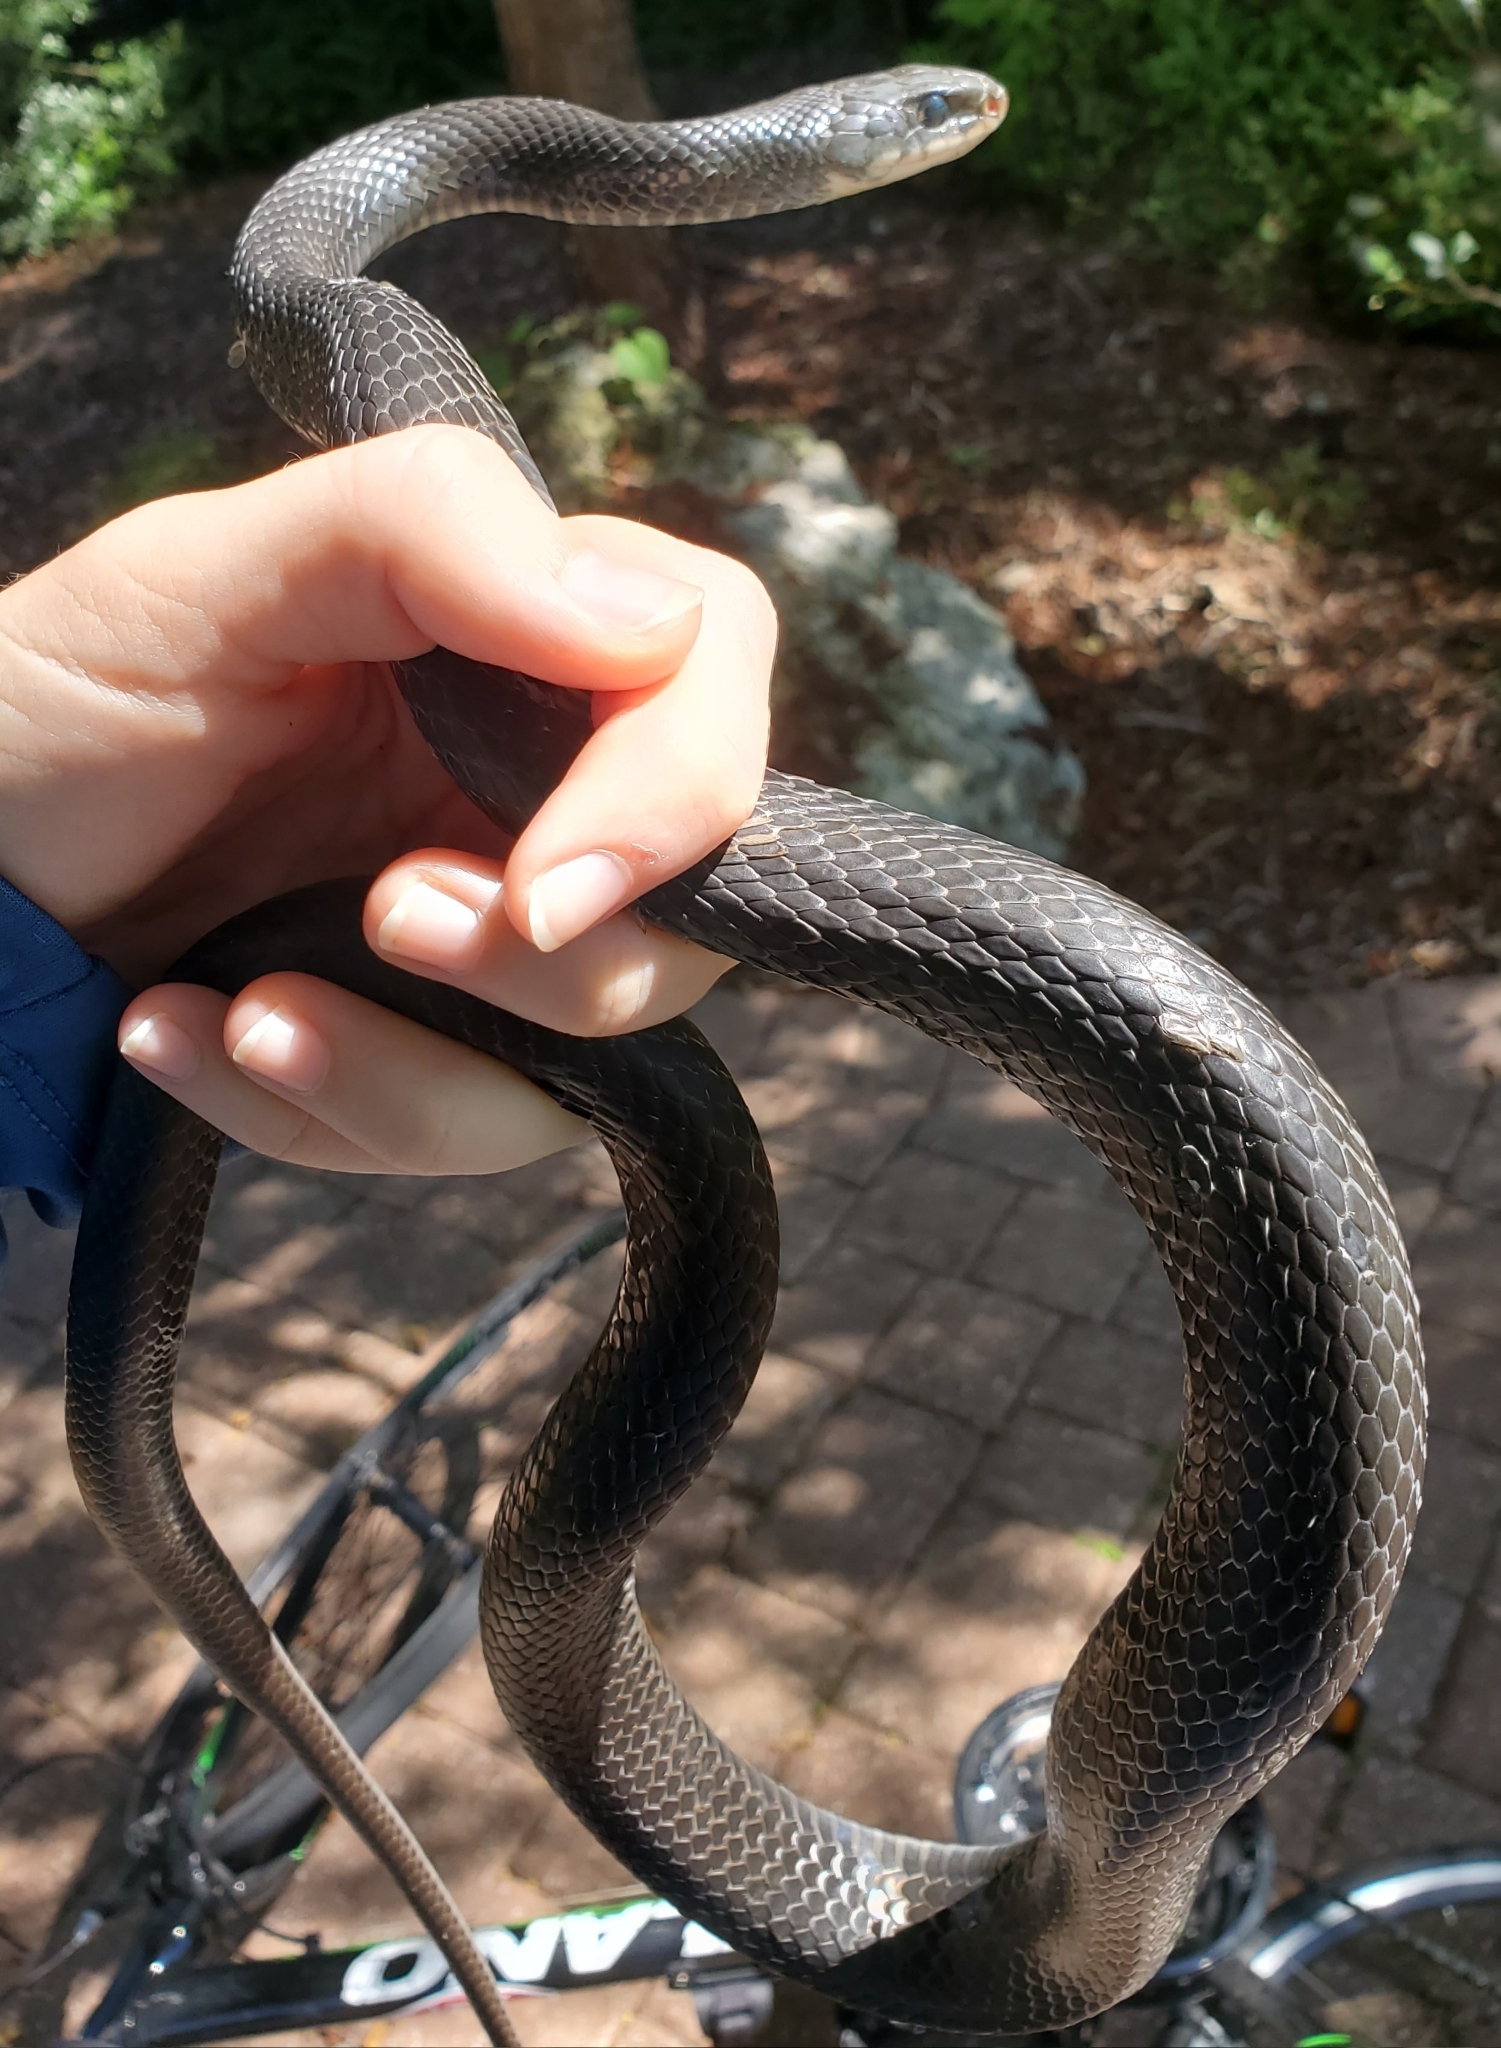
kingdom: Animalia
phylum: Chordata
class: Squamata
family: Colubridae
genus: Coluber
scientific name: Coluber constrictor
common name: Eastern racer
